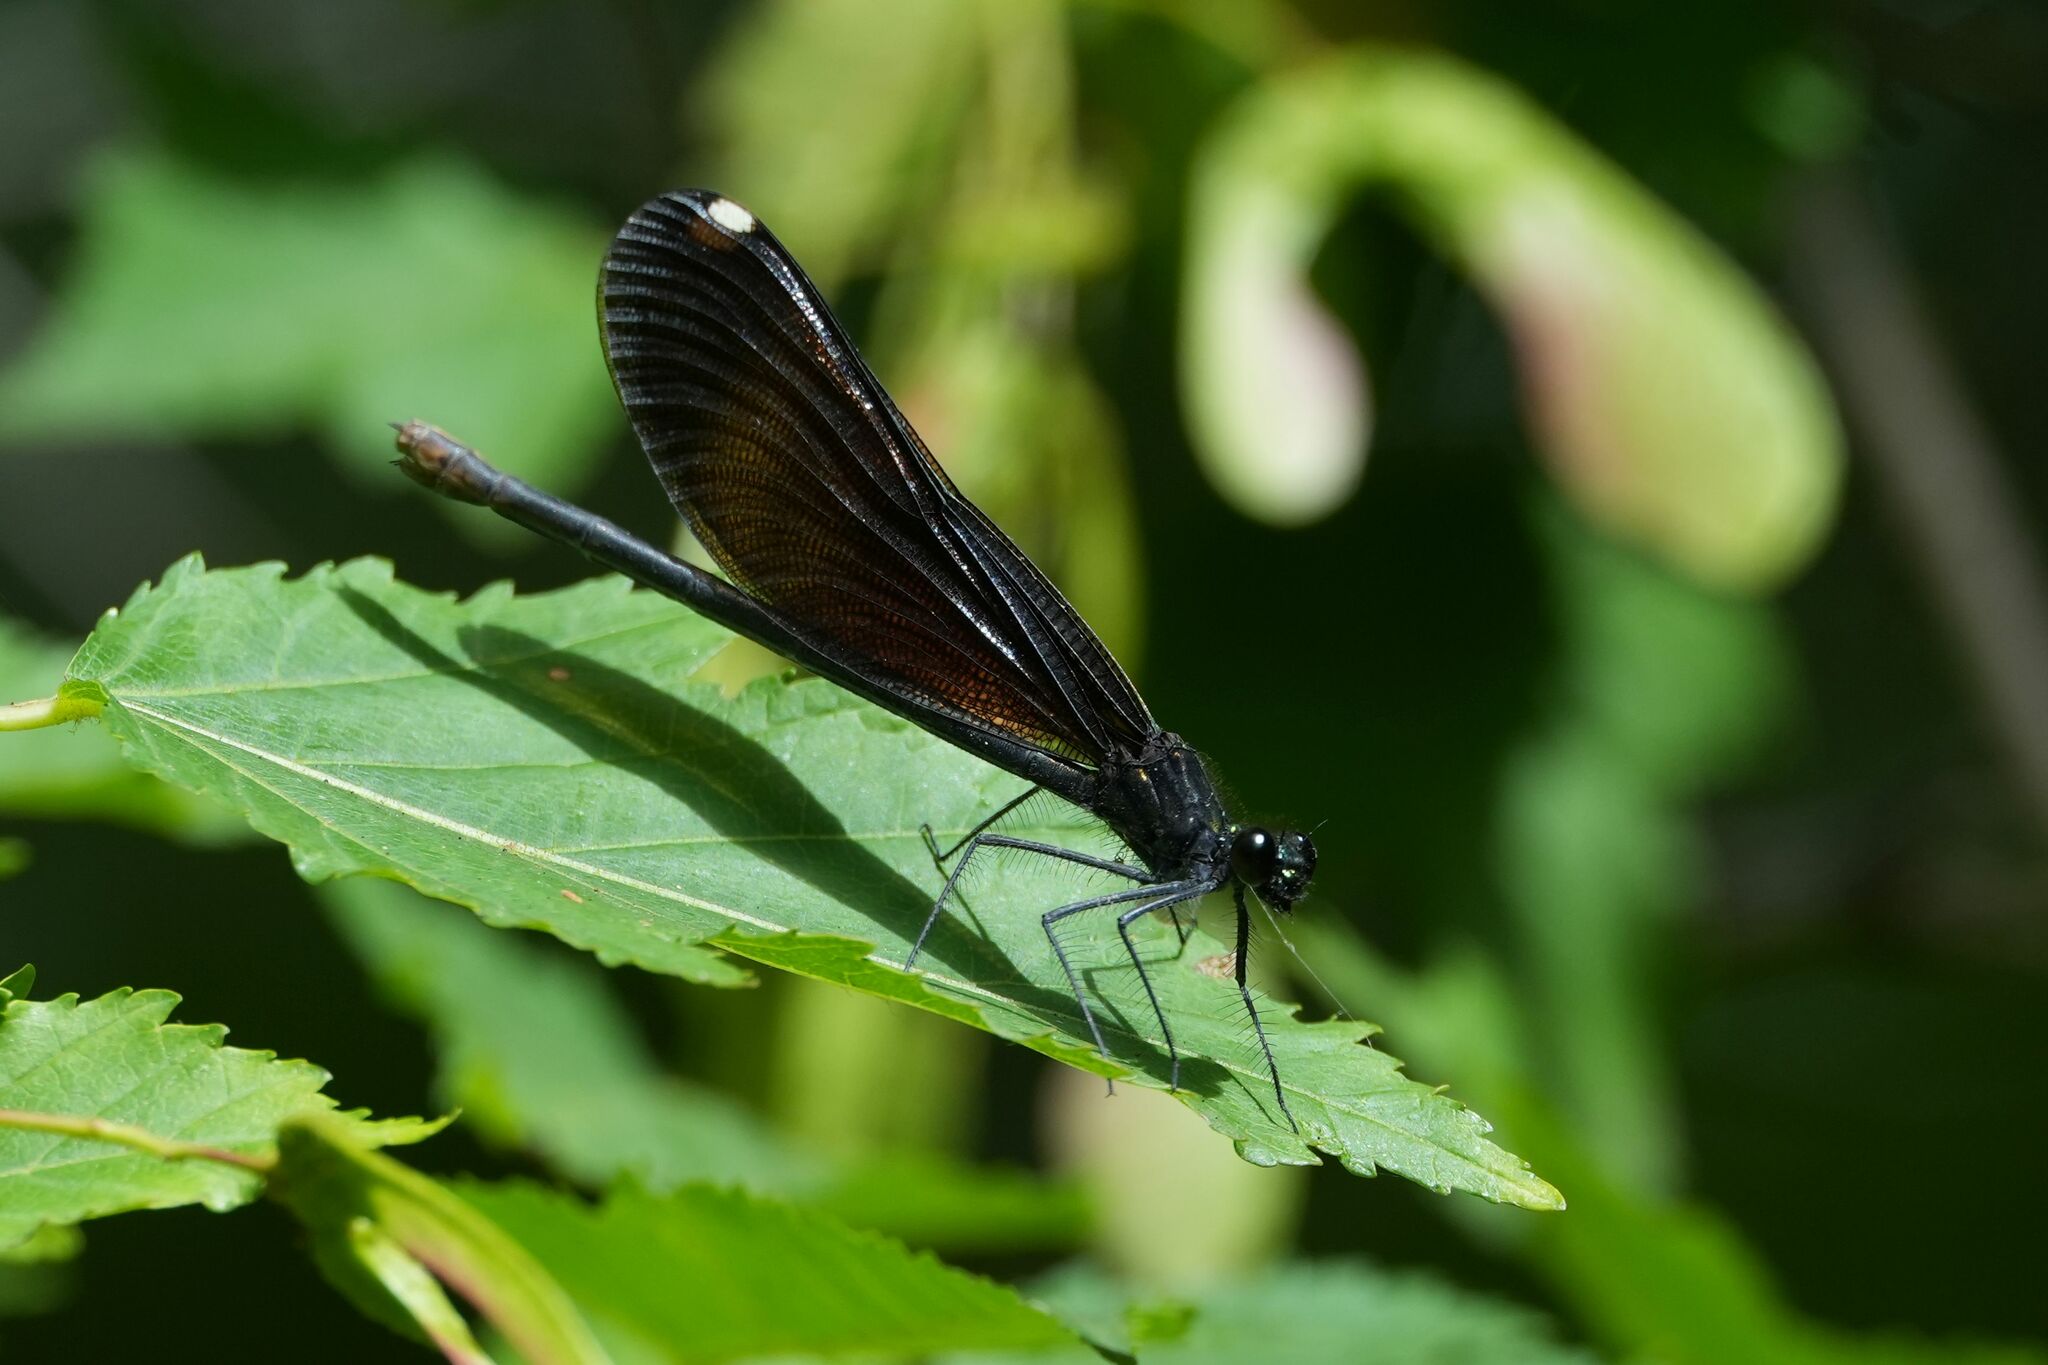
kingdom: Animalia
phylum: Arthropoda
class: Insecta
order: Odonata
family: Calopterygidae
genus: Calopteryx
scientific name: Calopteryx maculata
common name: Ebony jewelwing
